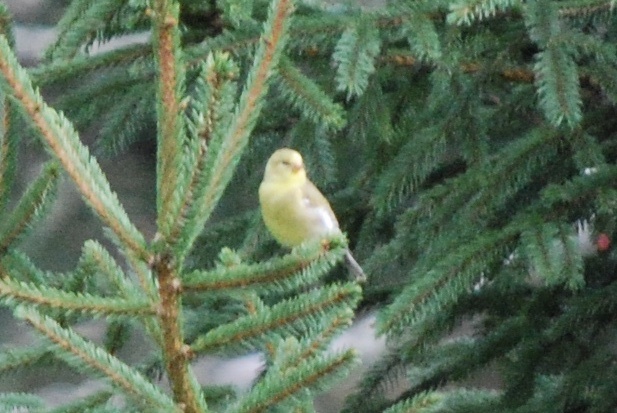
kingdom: Animalia
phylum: Chordata
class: Aves
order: Passeriformes
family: Fringillidae
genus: Spinus
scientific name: Spinus tristis
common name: American goldfinch
